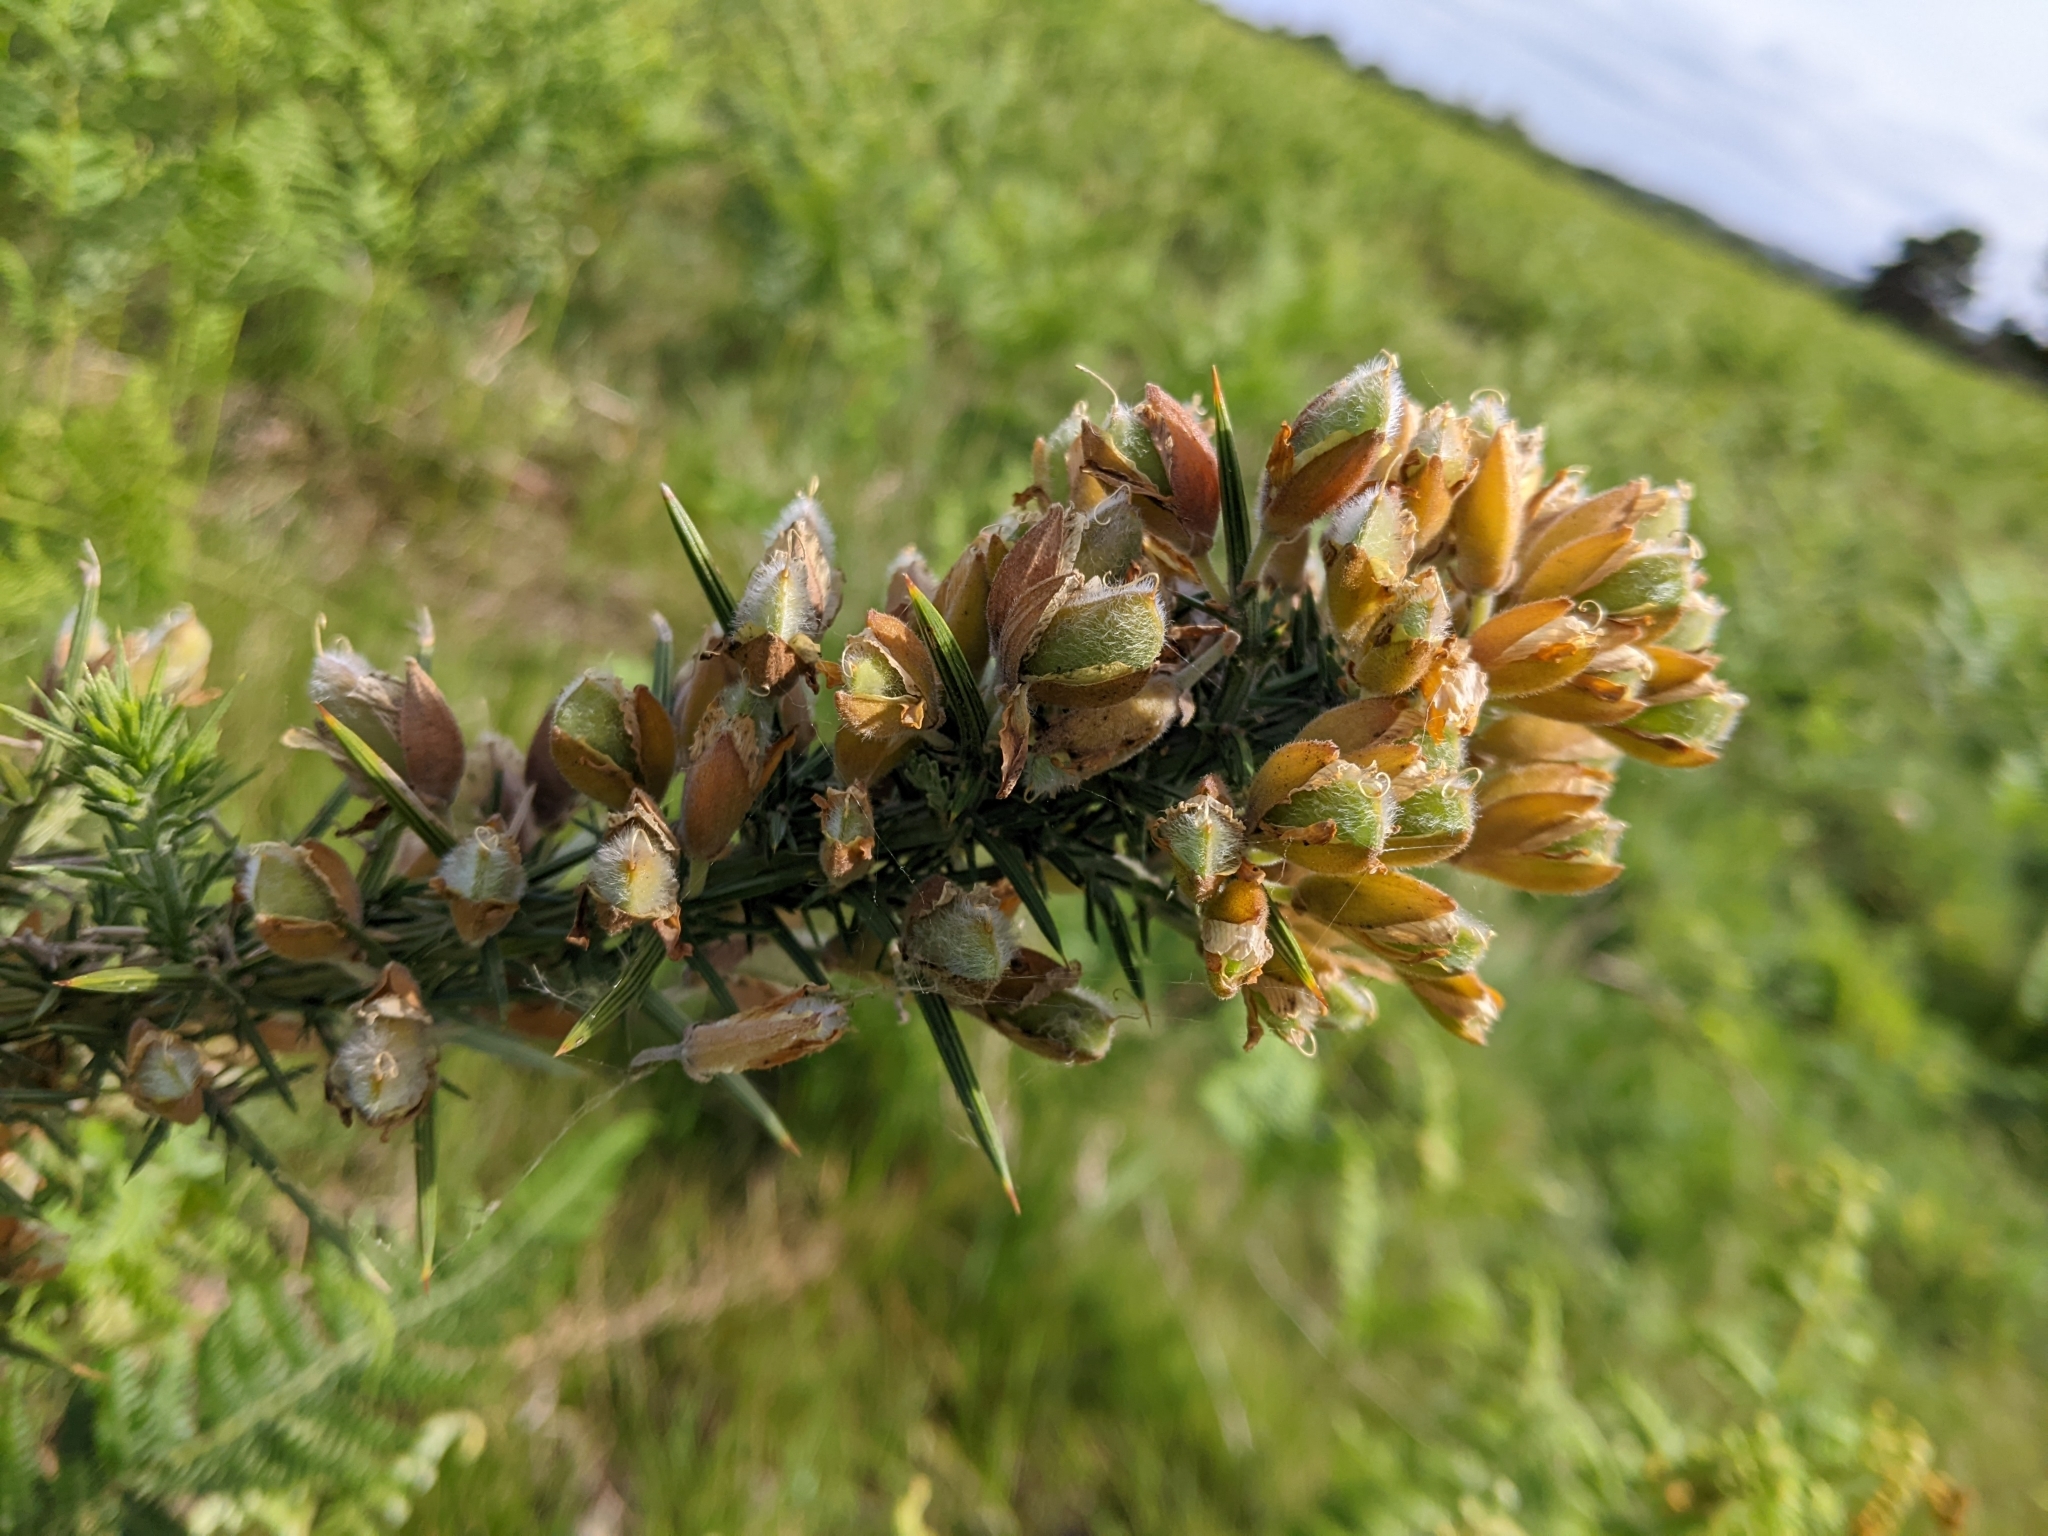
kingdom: Plantae
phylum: Tracheophyta
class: Magnoliopsida
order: Fabales
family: Fabaceae
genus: Ulex
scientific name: Ulex europaeus
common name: Common gorse
